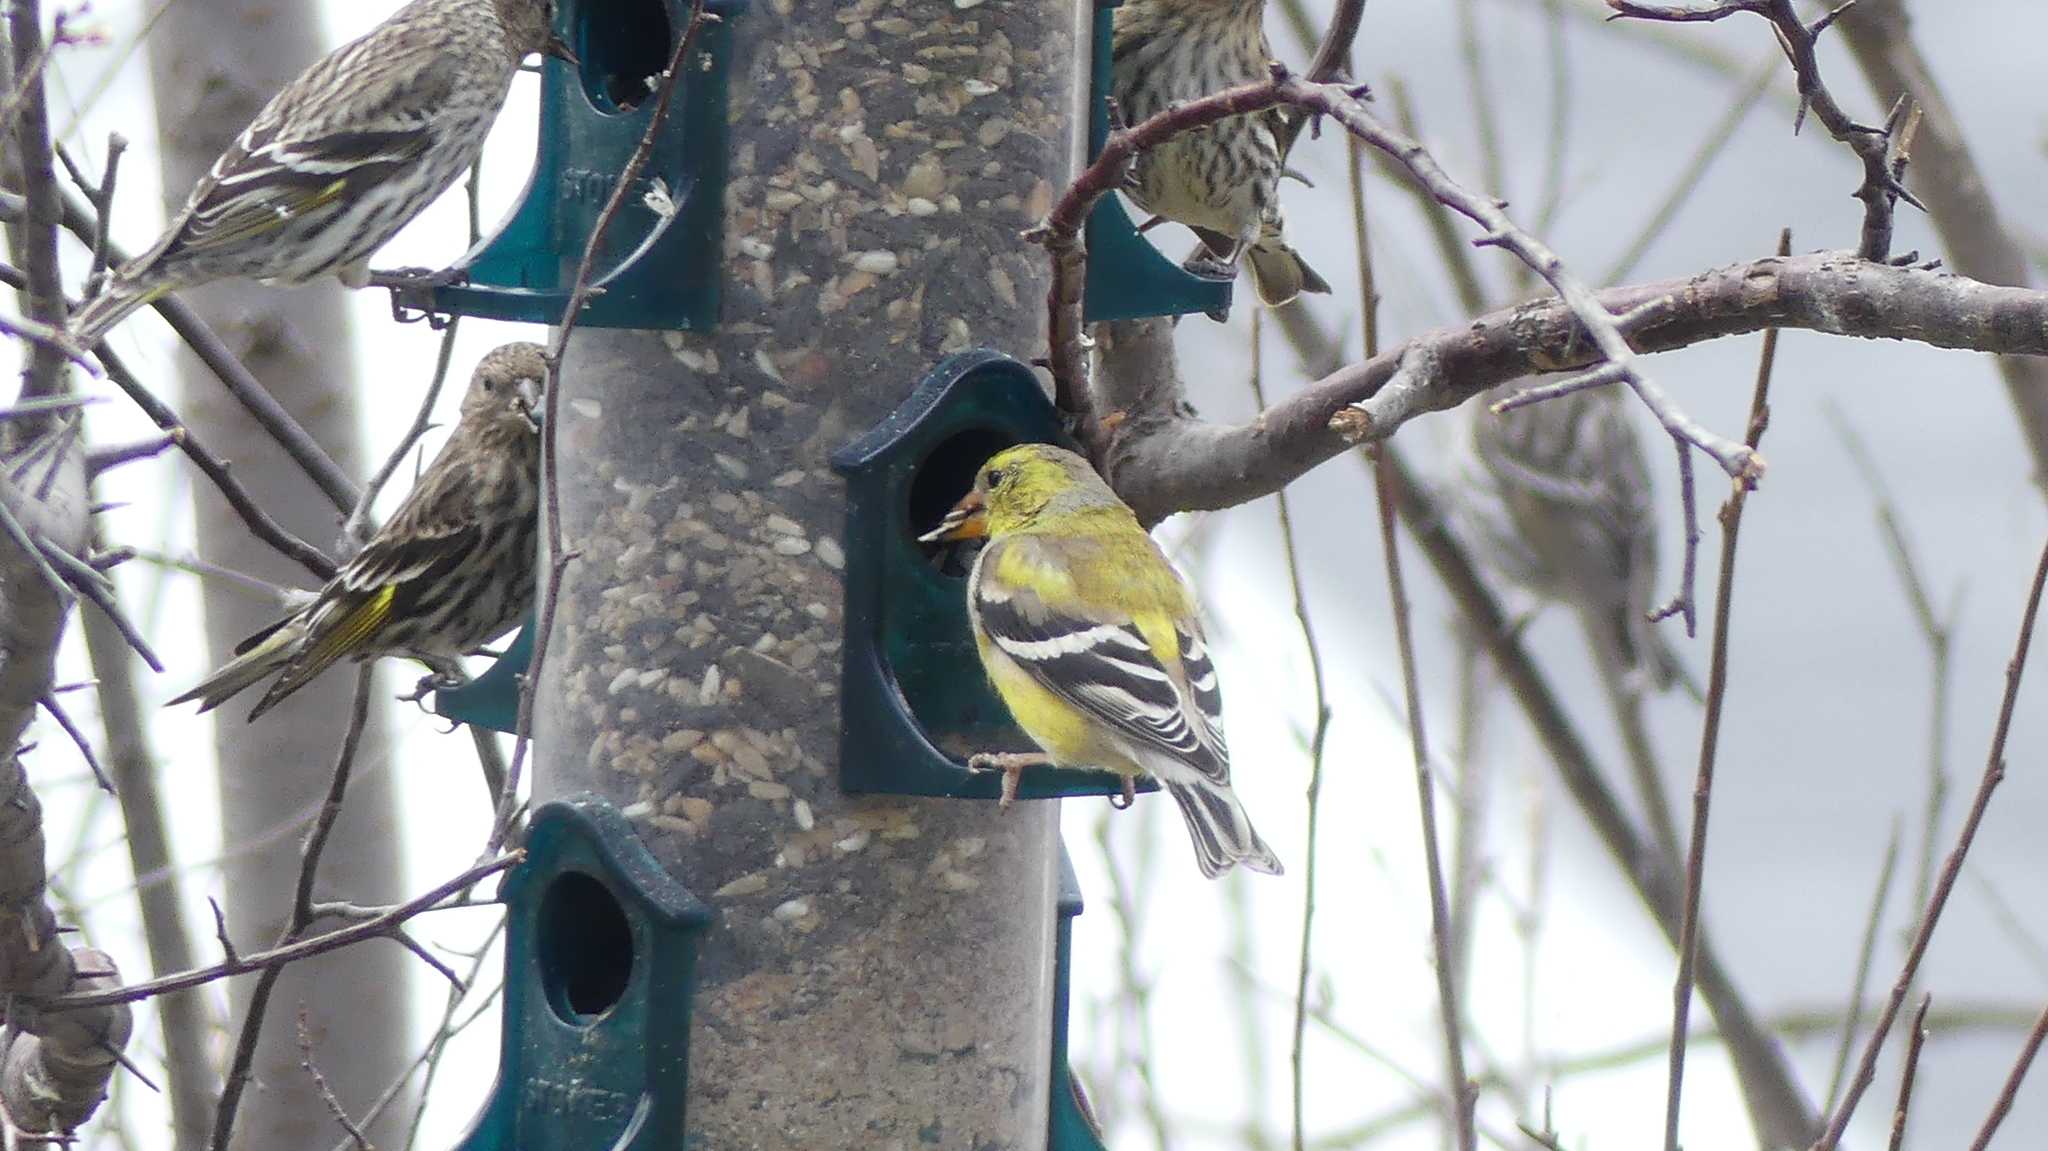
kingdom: Animalia
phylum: Chordata
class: Aves
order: Passeriformes
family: Fringillidae
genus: Spinus
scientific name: Spinus tristis
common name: American goldfinch
